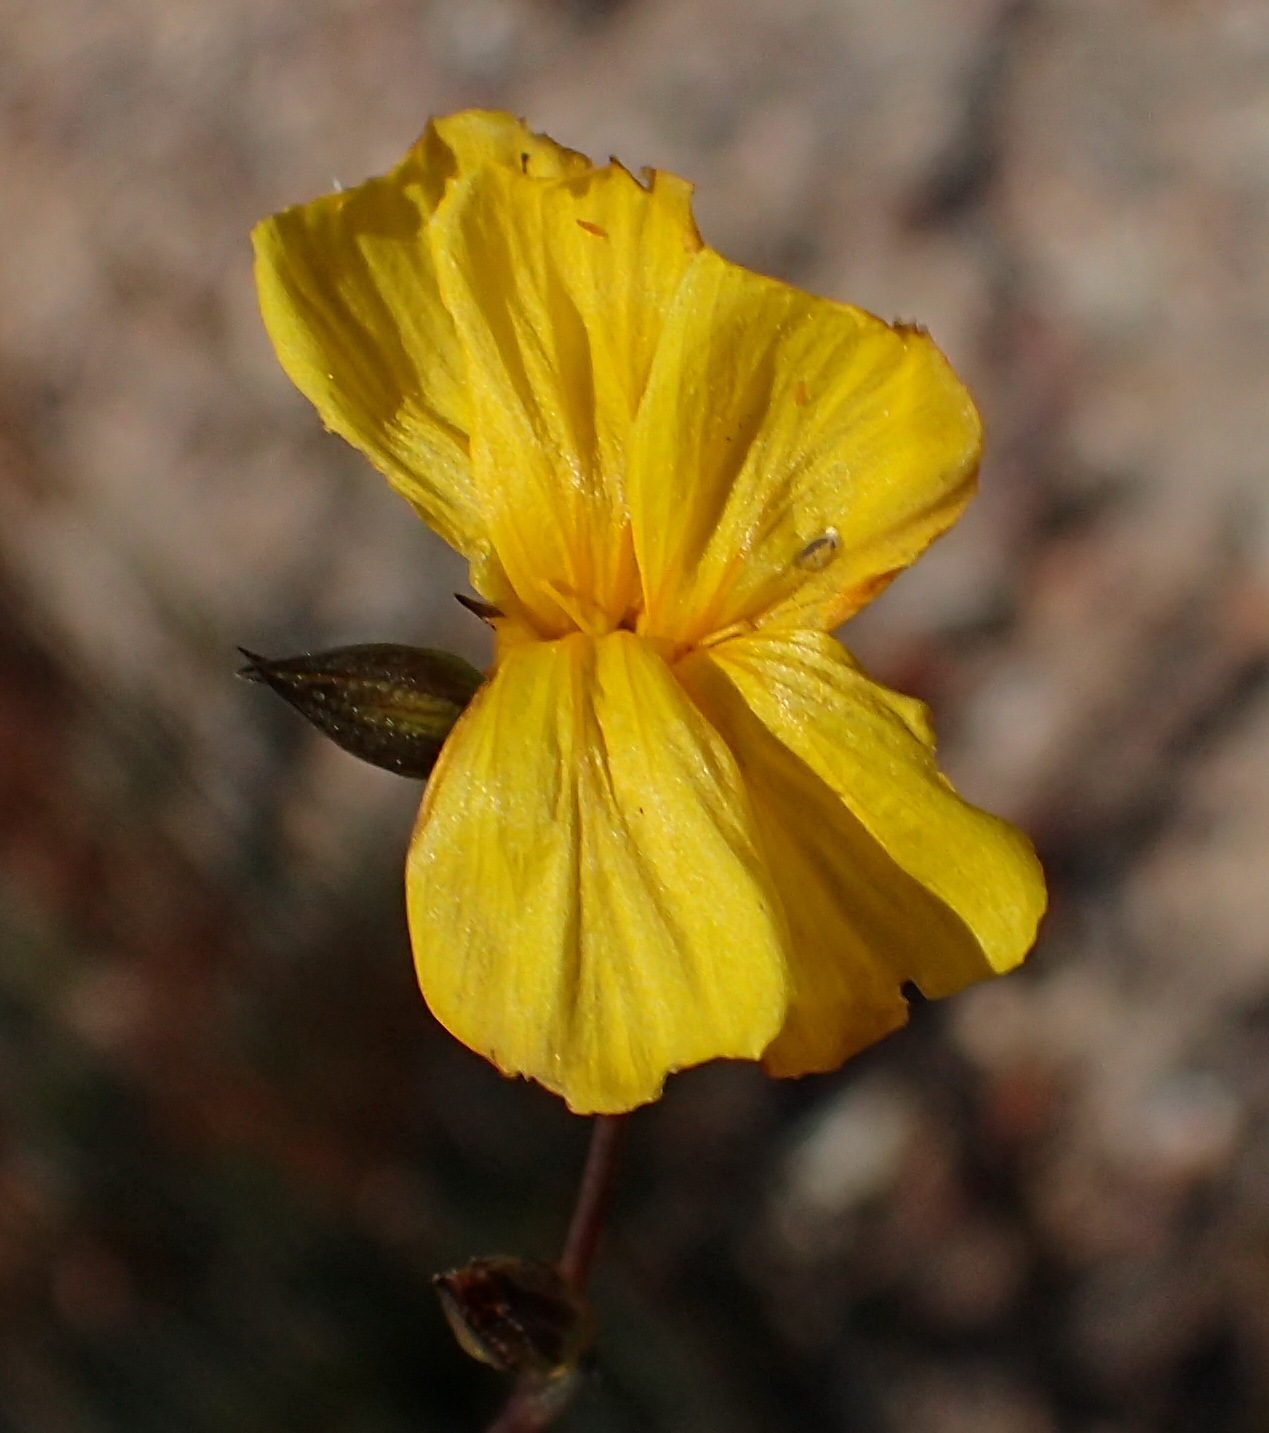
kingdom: Plantae
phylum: Tracheophyta
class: Magnoliopsida
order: Malpighiales
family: Linaceae
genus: Linum
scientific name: Linum africanum
